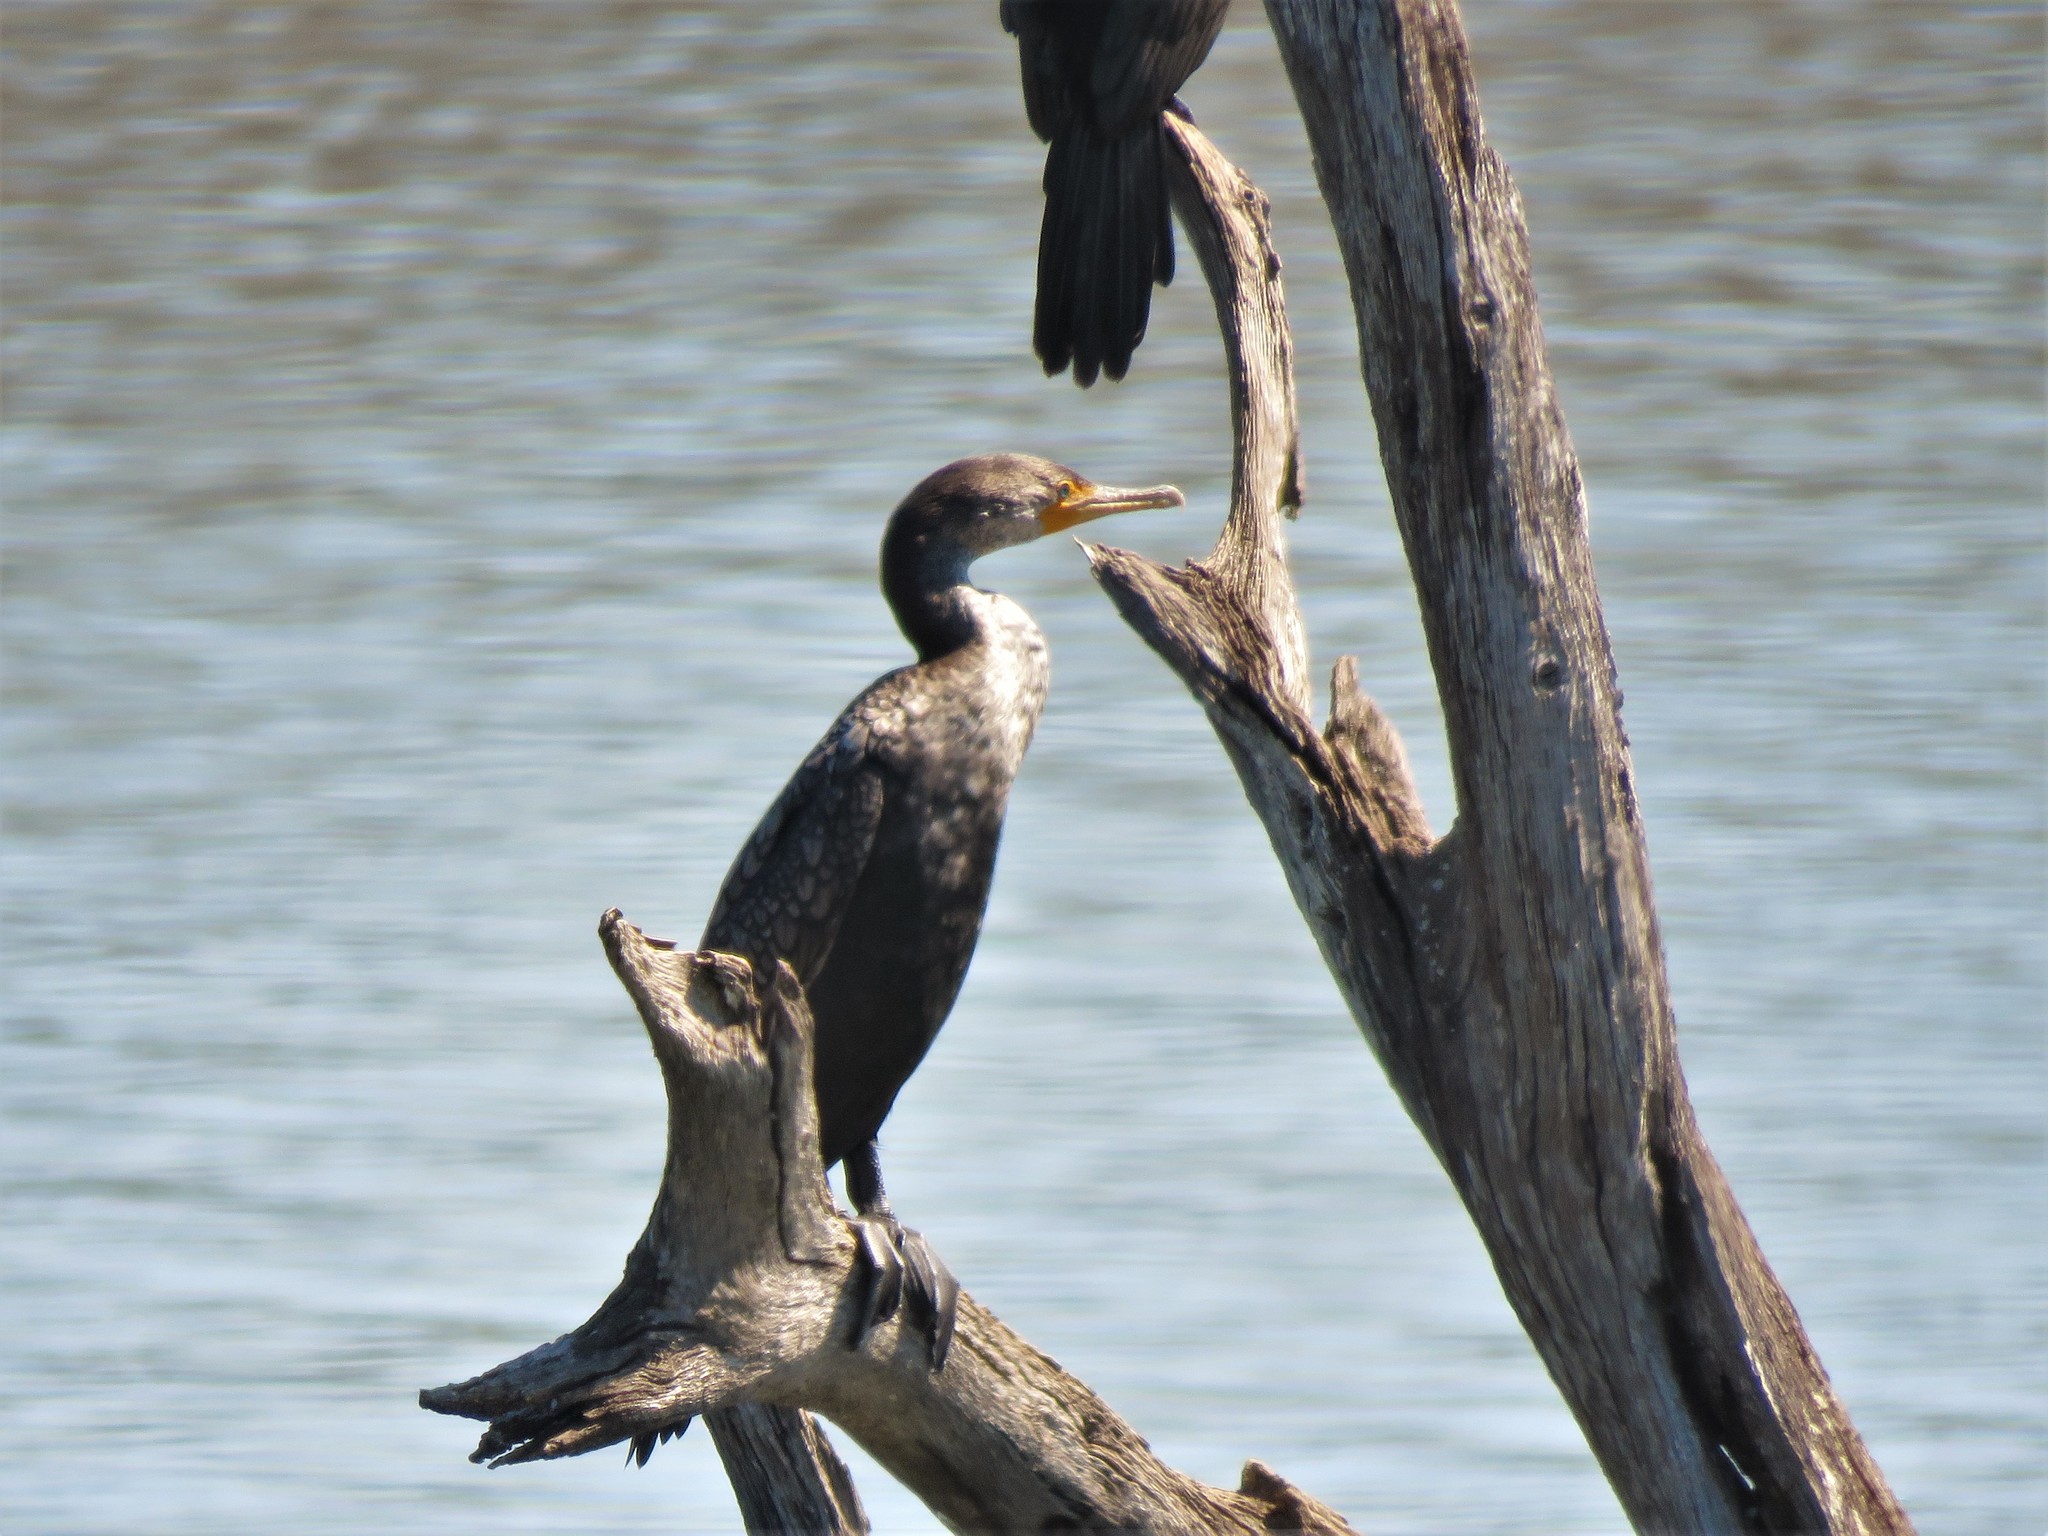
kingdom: Animalia
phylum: Chordata
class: Aves
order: Suliformes
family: Phalacrocoracidae
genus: Phalacrocorax
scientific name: Phalacrocorax auritus
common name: Double-crested cormorant
